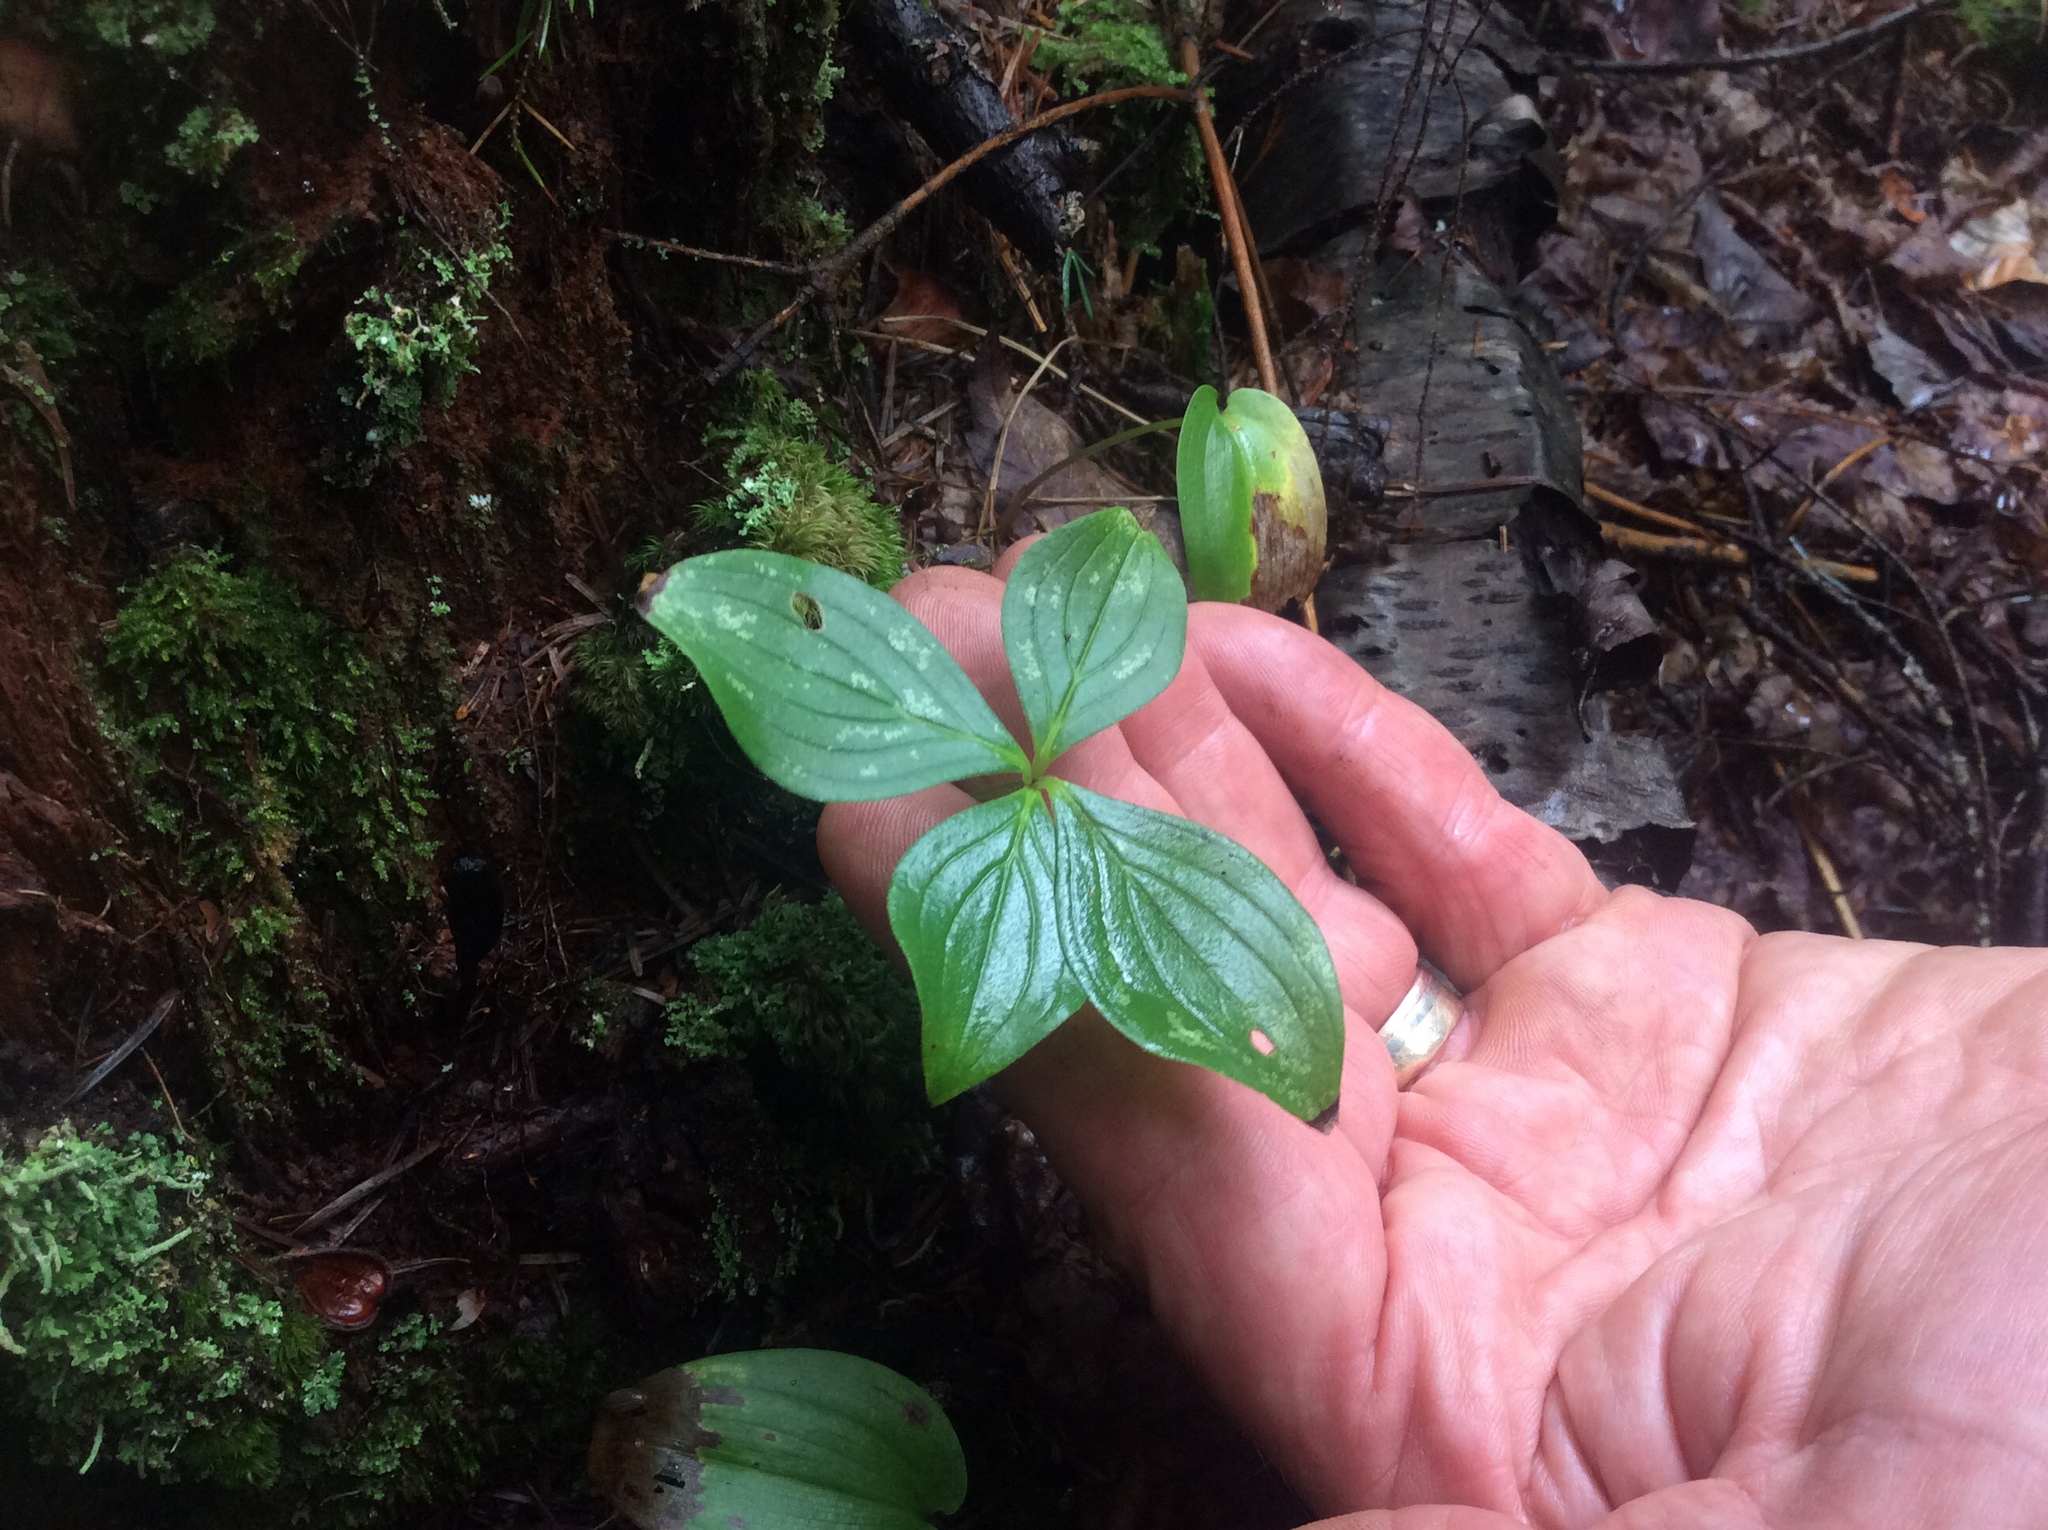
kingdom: Plantae
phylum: Tracheophyta
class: Magnoliopsida
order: Cornales
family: Cornaceae
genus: Cornus
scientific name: Cornus canadensis
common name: Creeping dogwood
